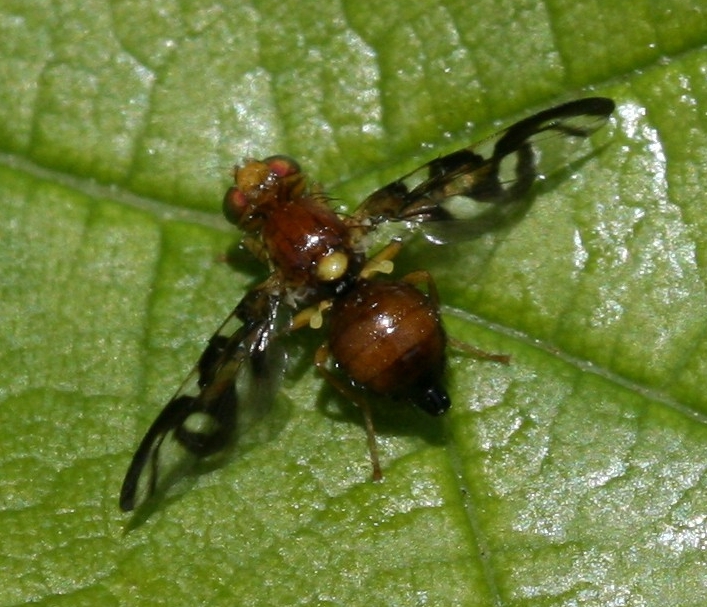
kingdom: Animalia
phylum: Arthropoda
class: Insecta
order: Diptera
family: Tephritidae
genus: Euleia
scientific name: Euleia heraclei
